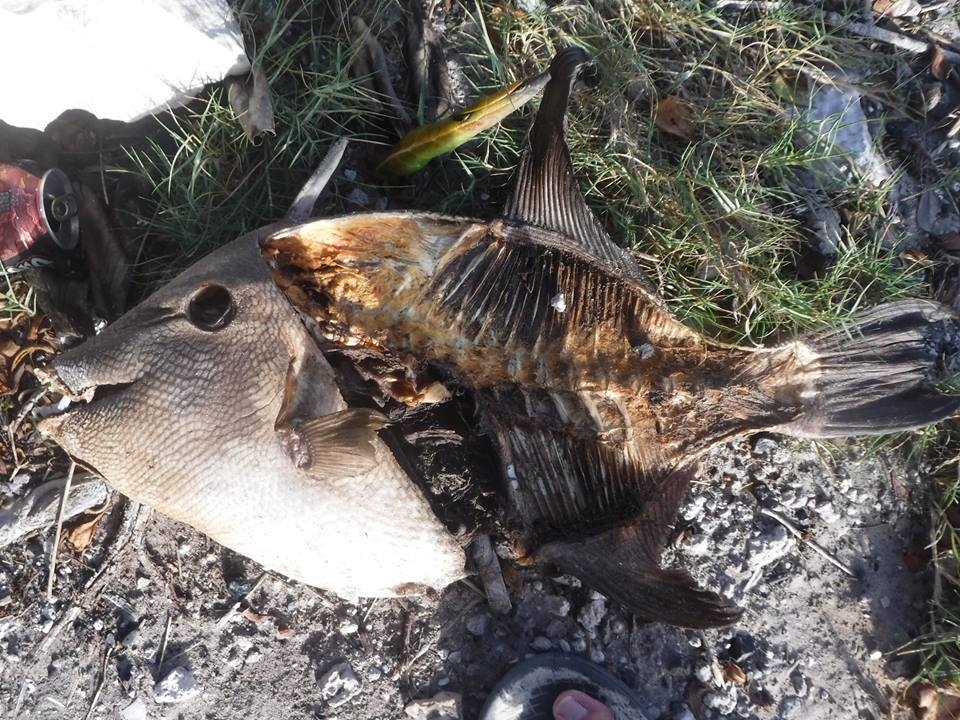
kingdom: Animalia
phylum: Chordata
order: Tetraodontiformes
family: Balistidae
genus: Balistes
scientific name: Balistes capriscus
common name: Grey triggerfish
